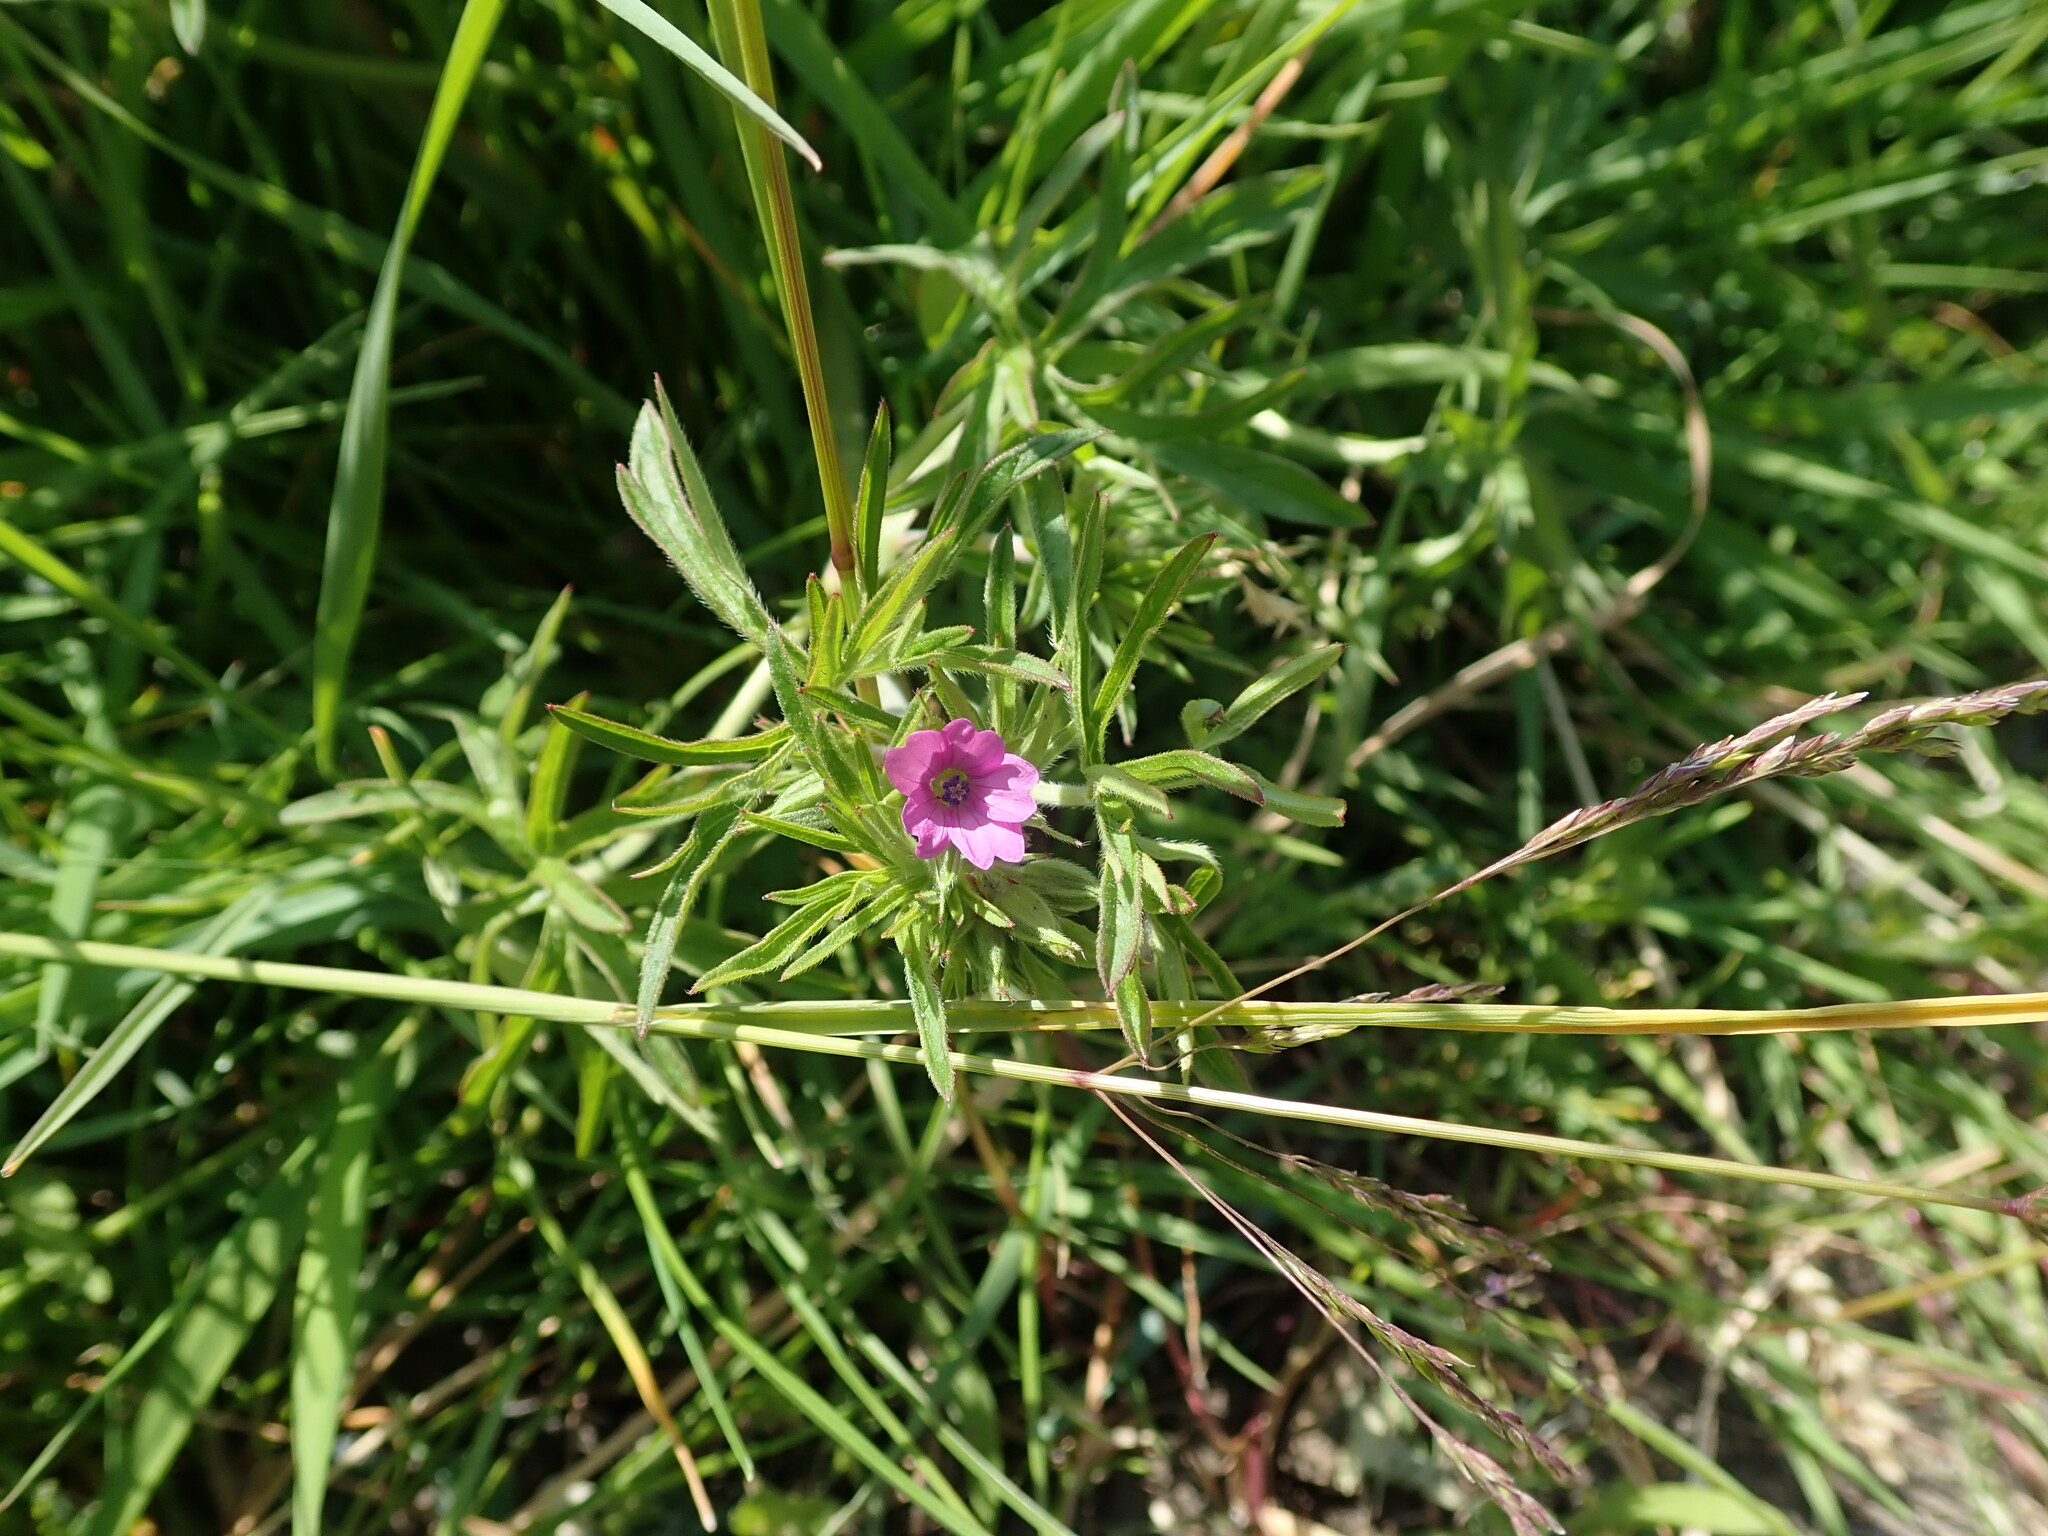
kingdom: Plantae
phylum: Tracheophyta
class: Magnoliopsida
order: Geraniales
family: Geraniaceae
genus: Geranium
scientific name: Geranium dissectum
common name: Cut-leaved crane's-bill
